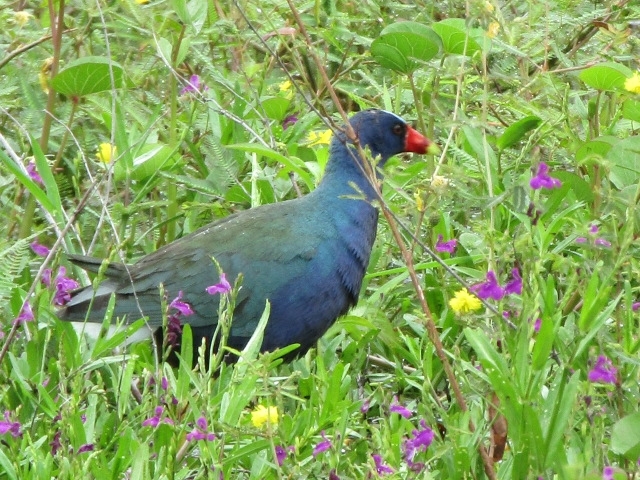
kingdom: Animalia
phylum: Chordata
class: Aves
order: Gruiformes
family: Rallidae
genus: Porphyrio
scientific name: Porphyrio martinica
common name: Purple gallinule
